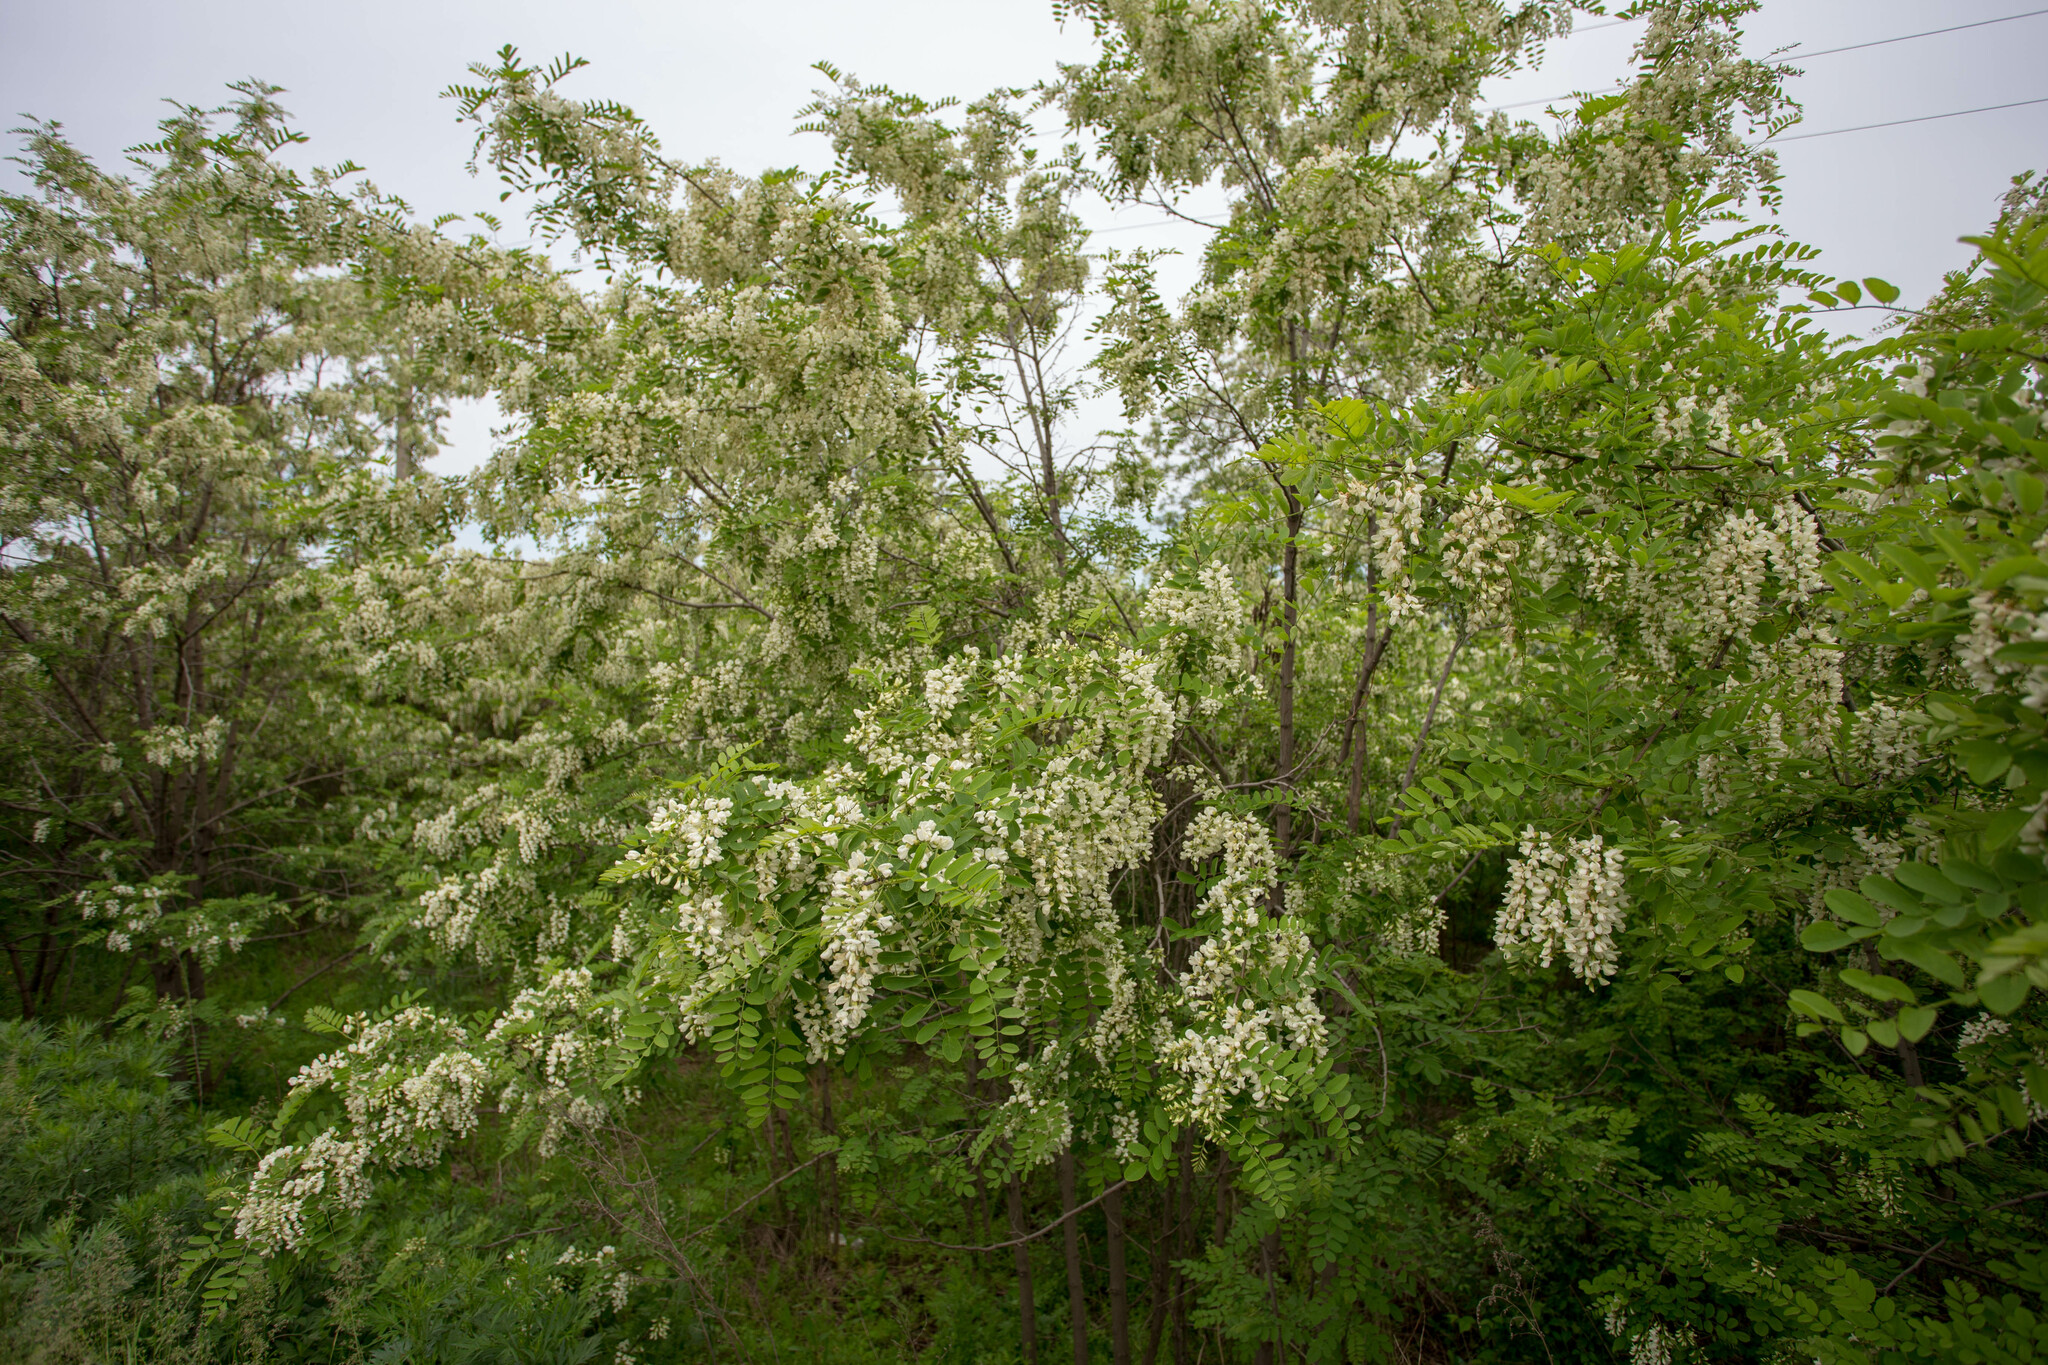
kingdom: Plantae
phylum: Tracheophyta
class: Magnoliopsida
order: Fabales
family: Fabaceae
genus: Robinia
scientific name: Robinia pseudoacacia
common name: Black locust
